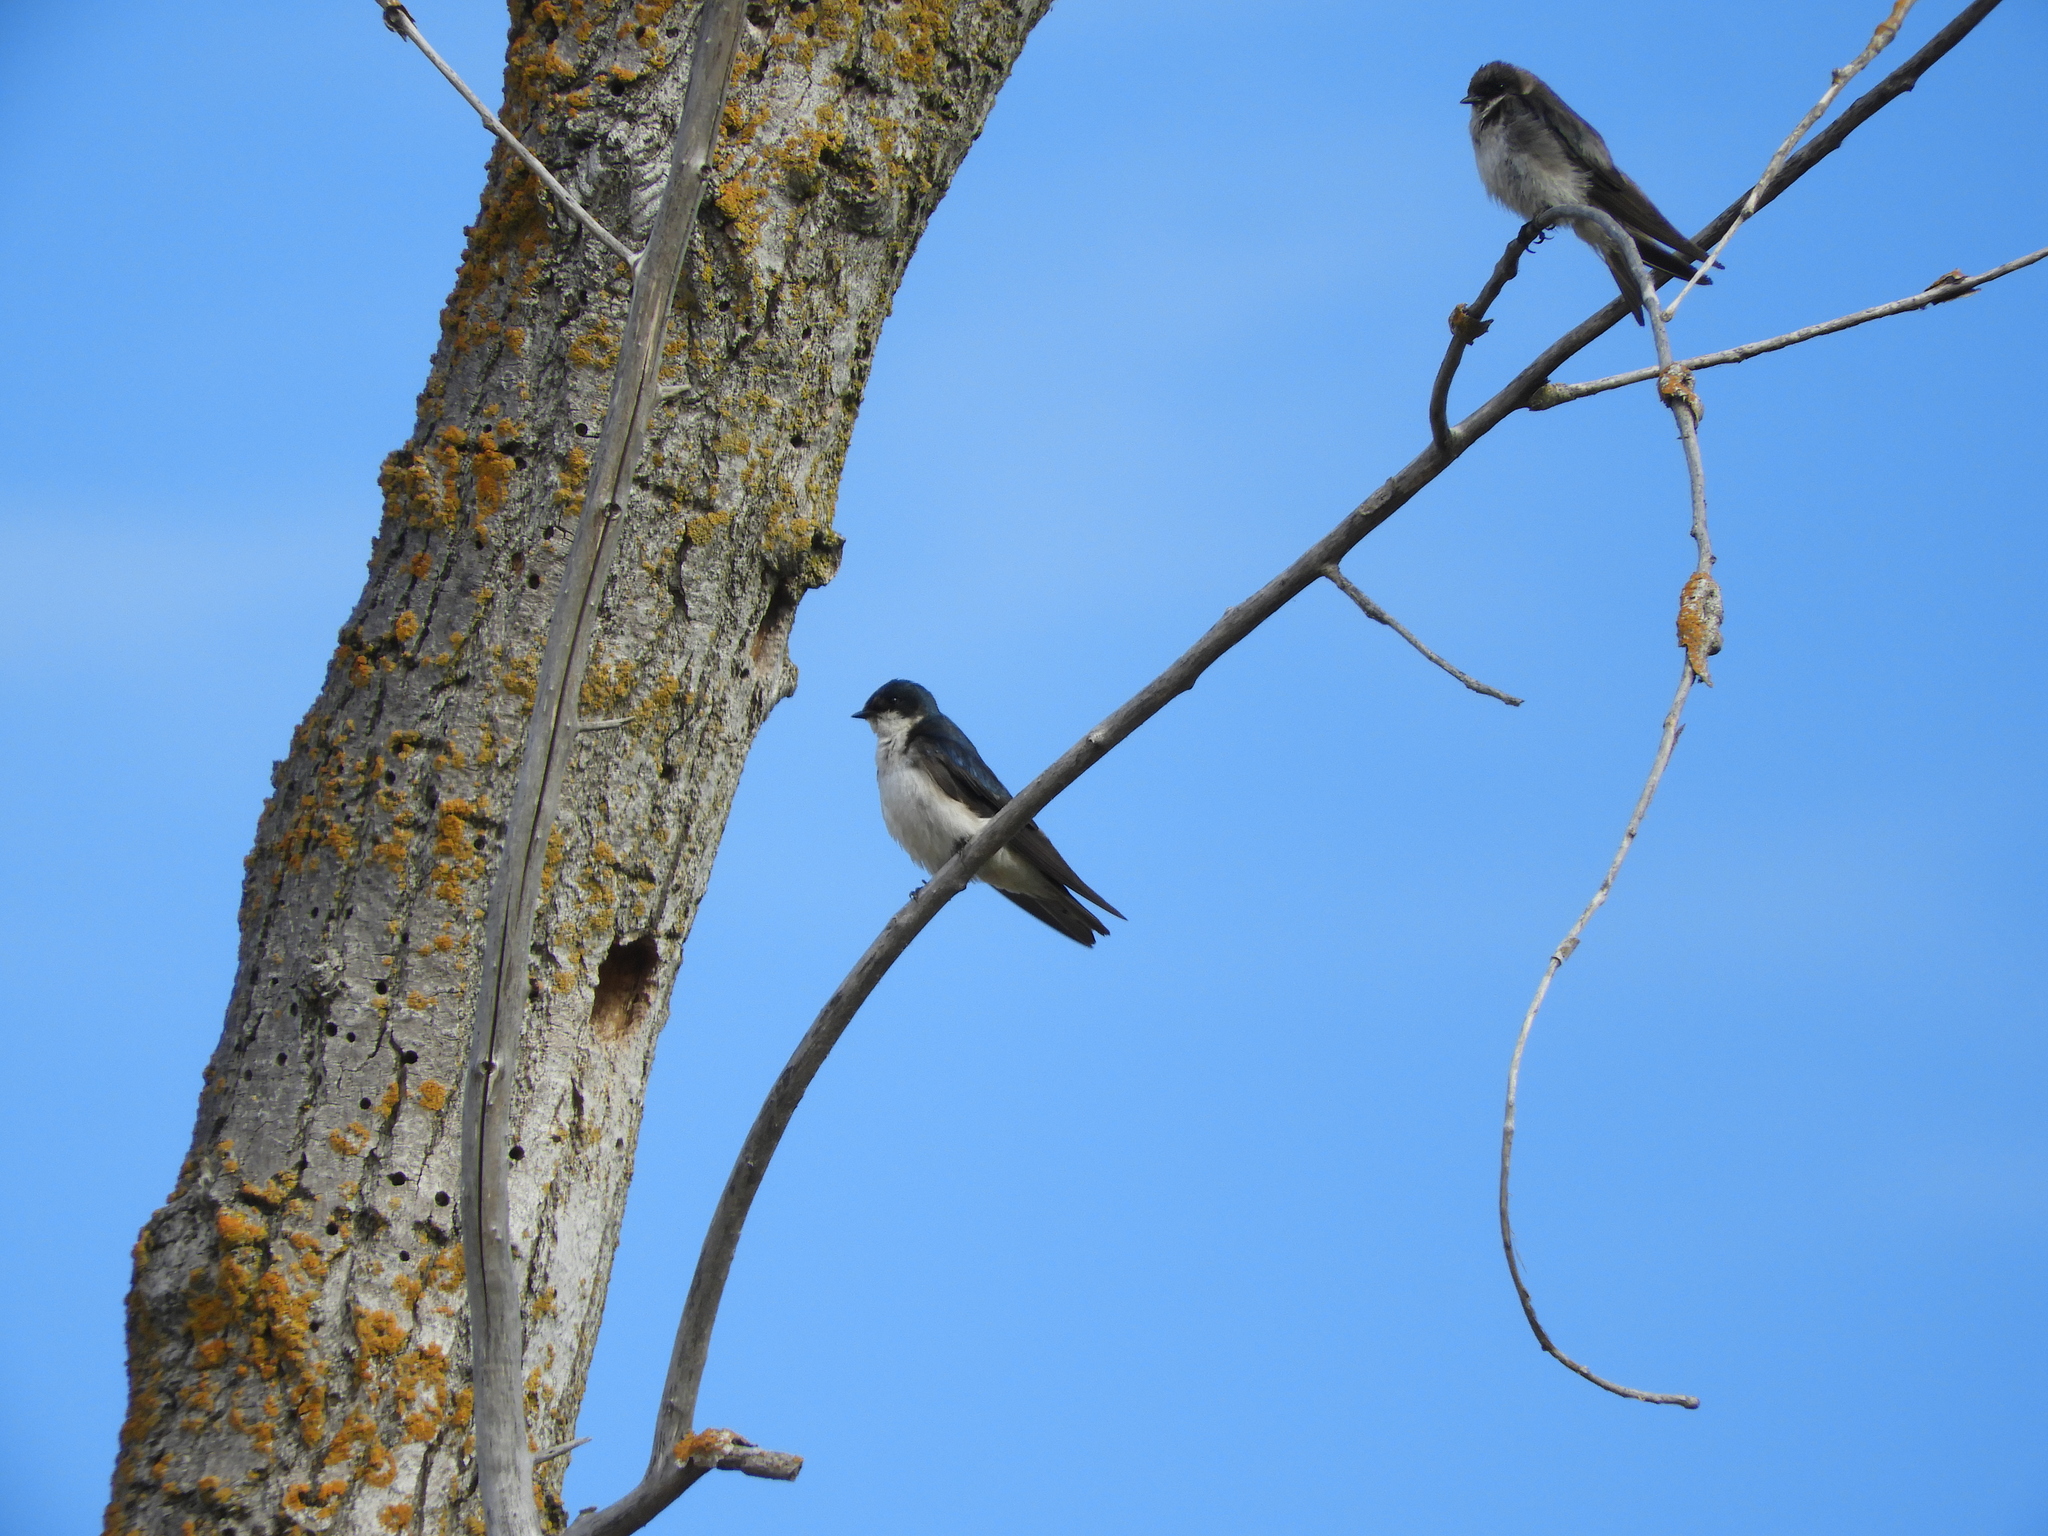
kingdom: Animalia
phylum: Chordata
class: Aves
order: Passeriformes
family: Hirundinidae
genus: Tachycineta
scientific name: Tachycineta bicolor
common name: Tree swallow
